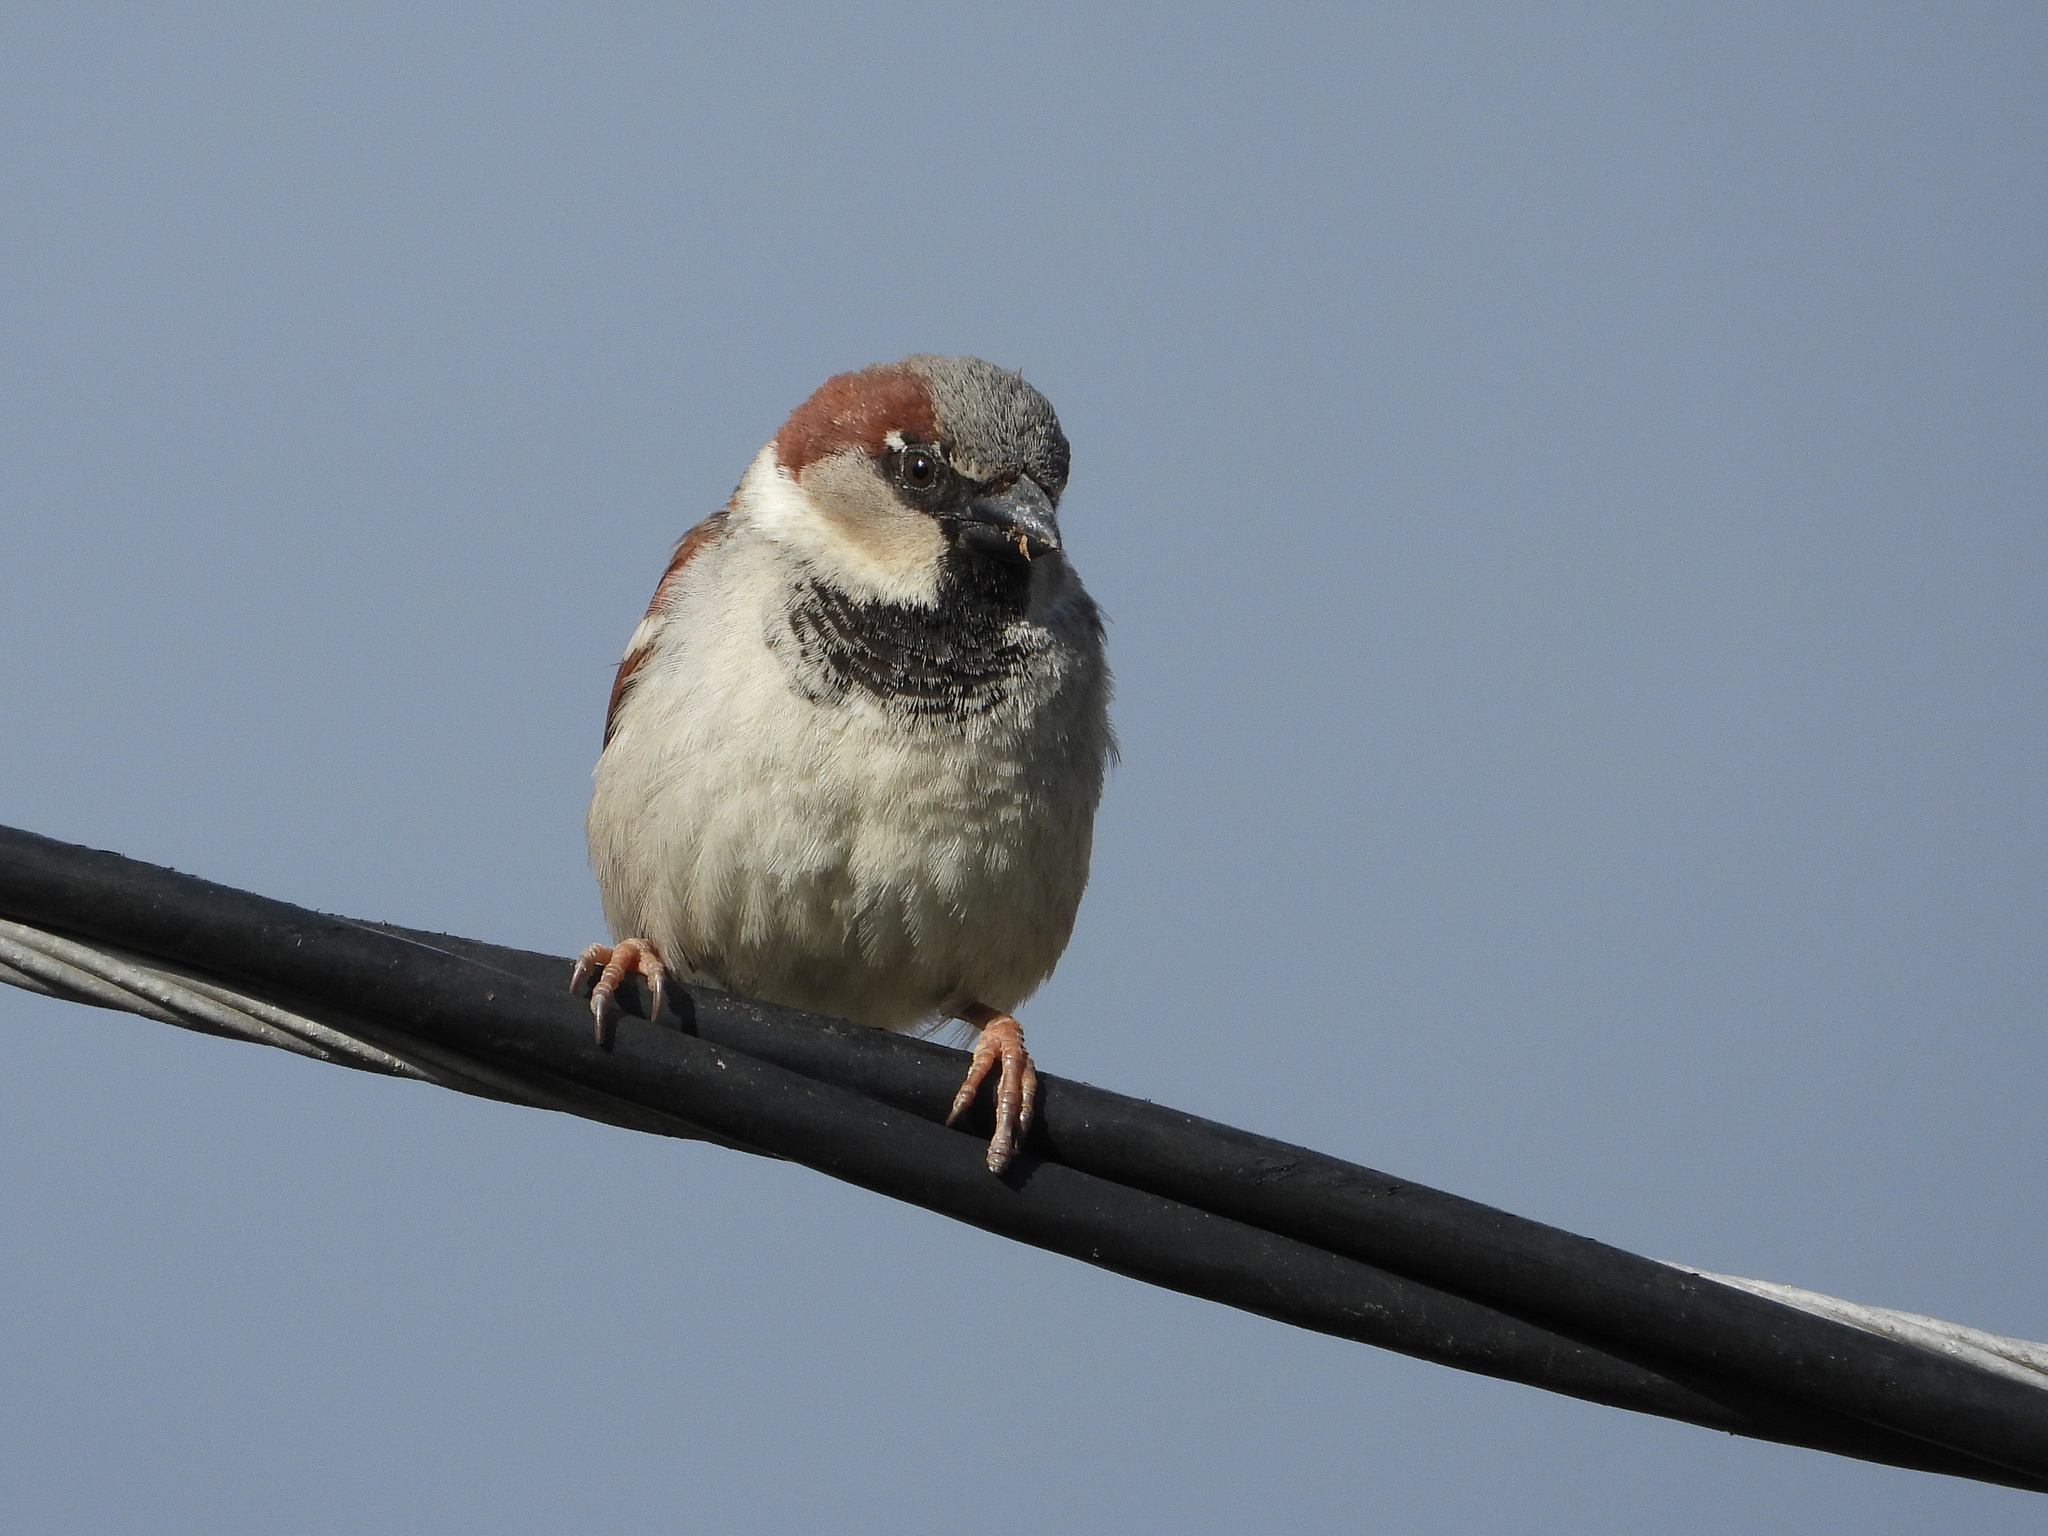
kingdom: Animalia
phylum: Chordata
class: Aves
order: Passeriformes
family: Passeridae
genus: Passer
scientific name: Passer domesticus
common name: House sparrow
